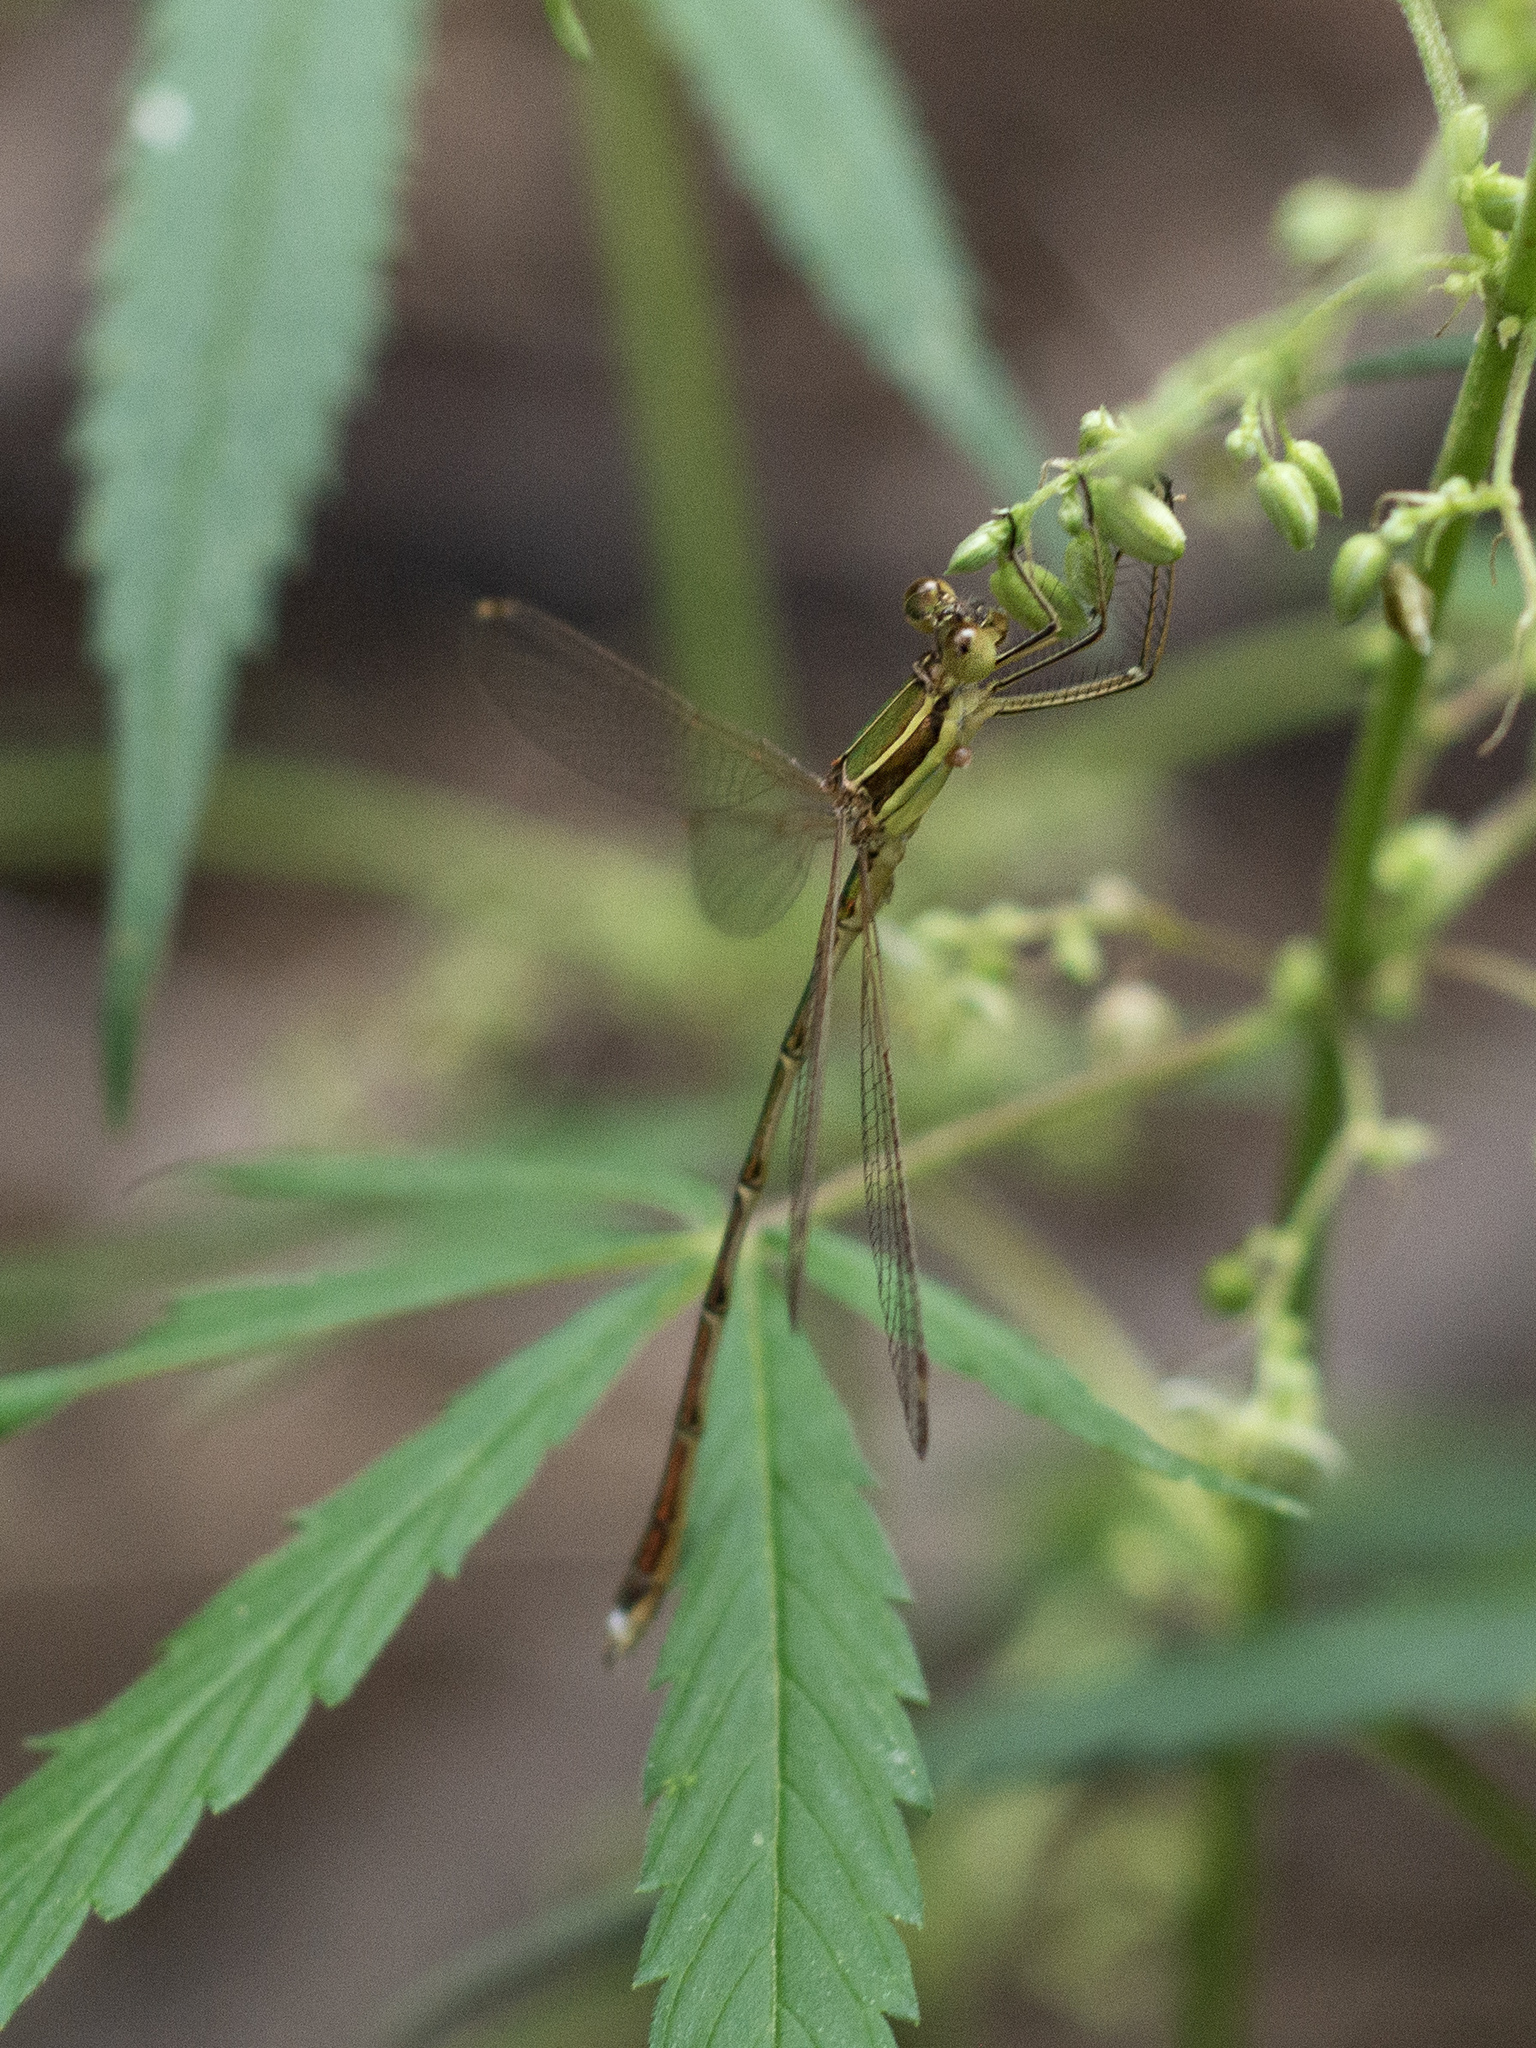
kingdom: Animalia
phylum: Arthropoda
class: Insecta
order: Odonata
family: Lestidae
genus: Lestes
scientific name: Lestes barbarus
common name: Migrant spreadwing
